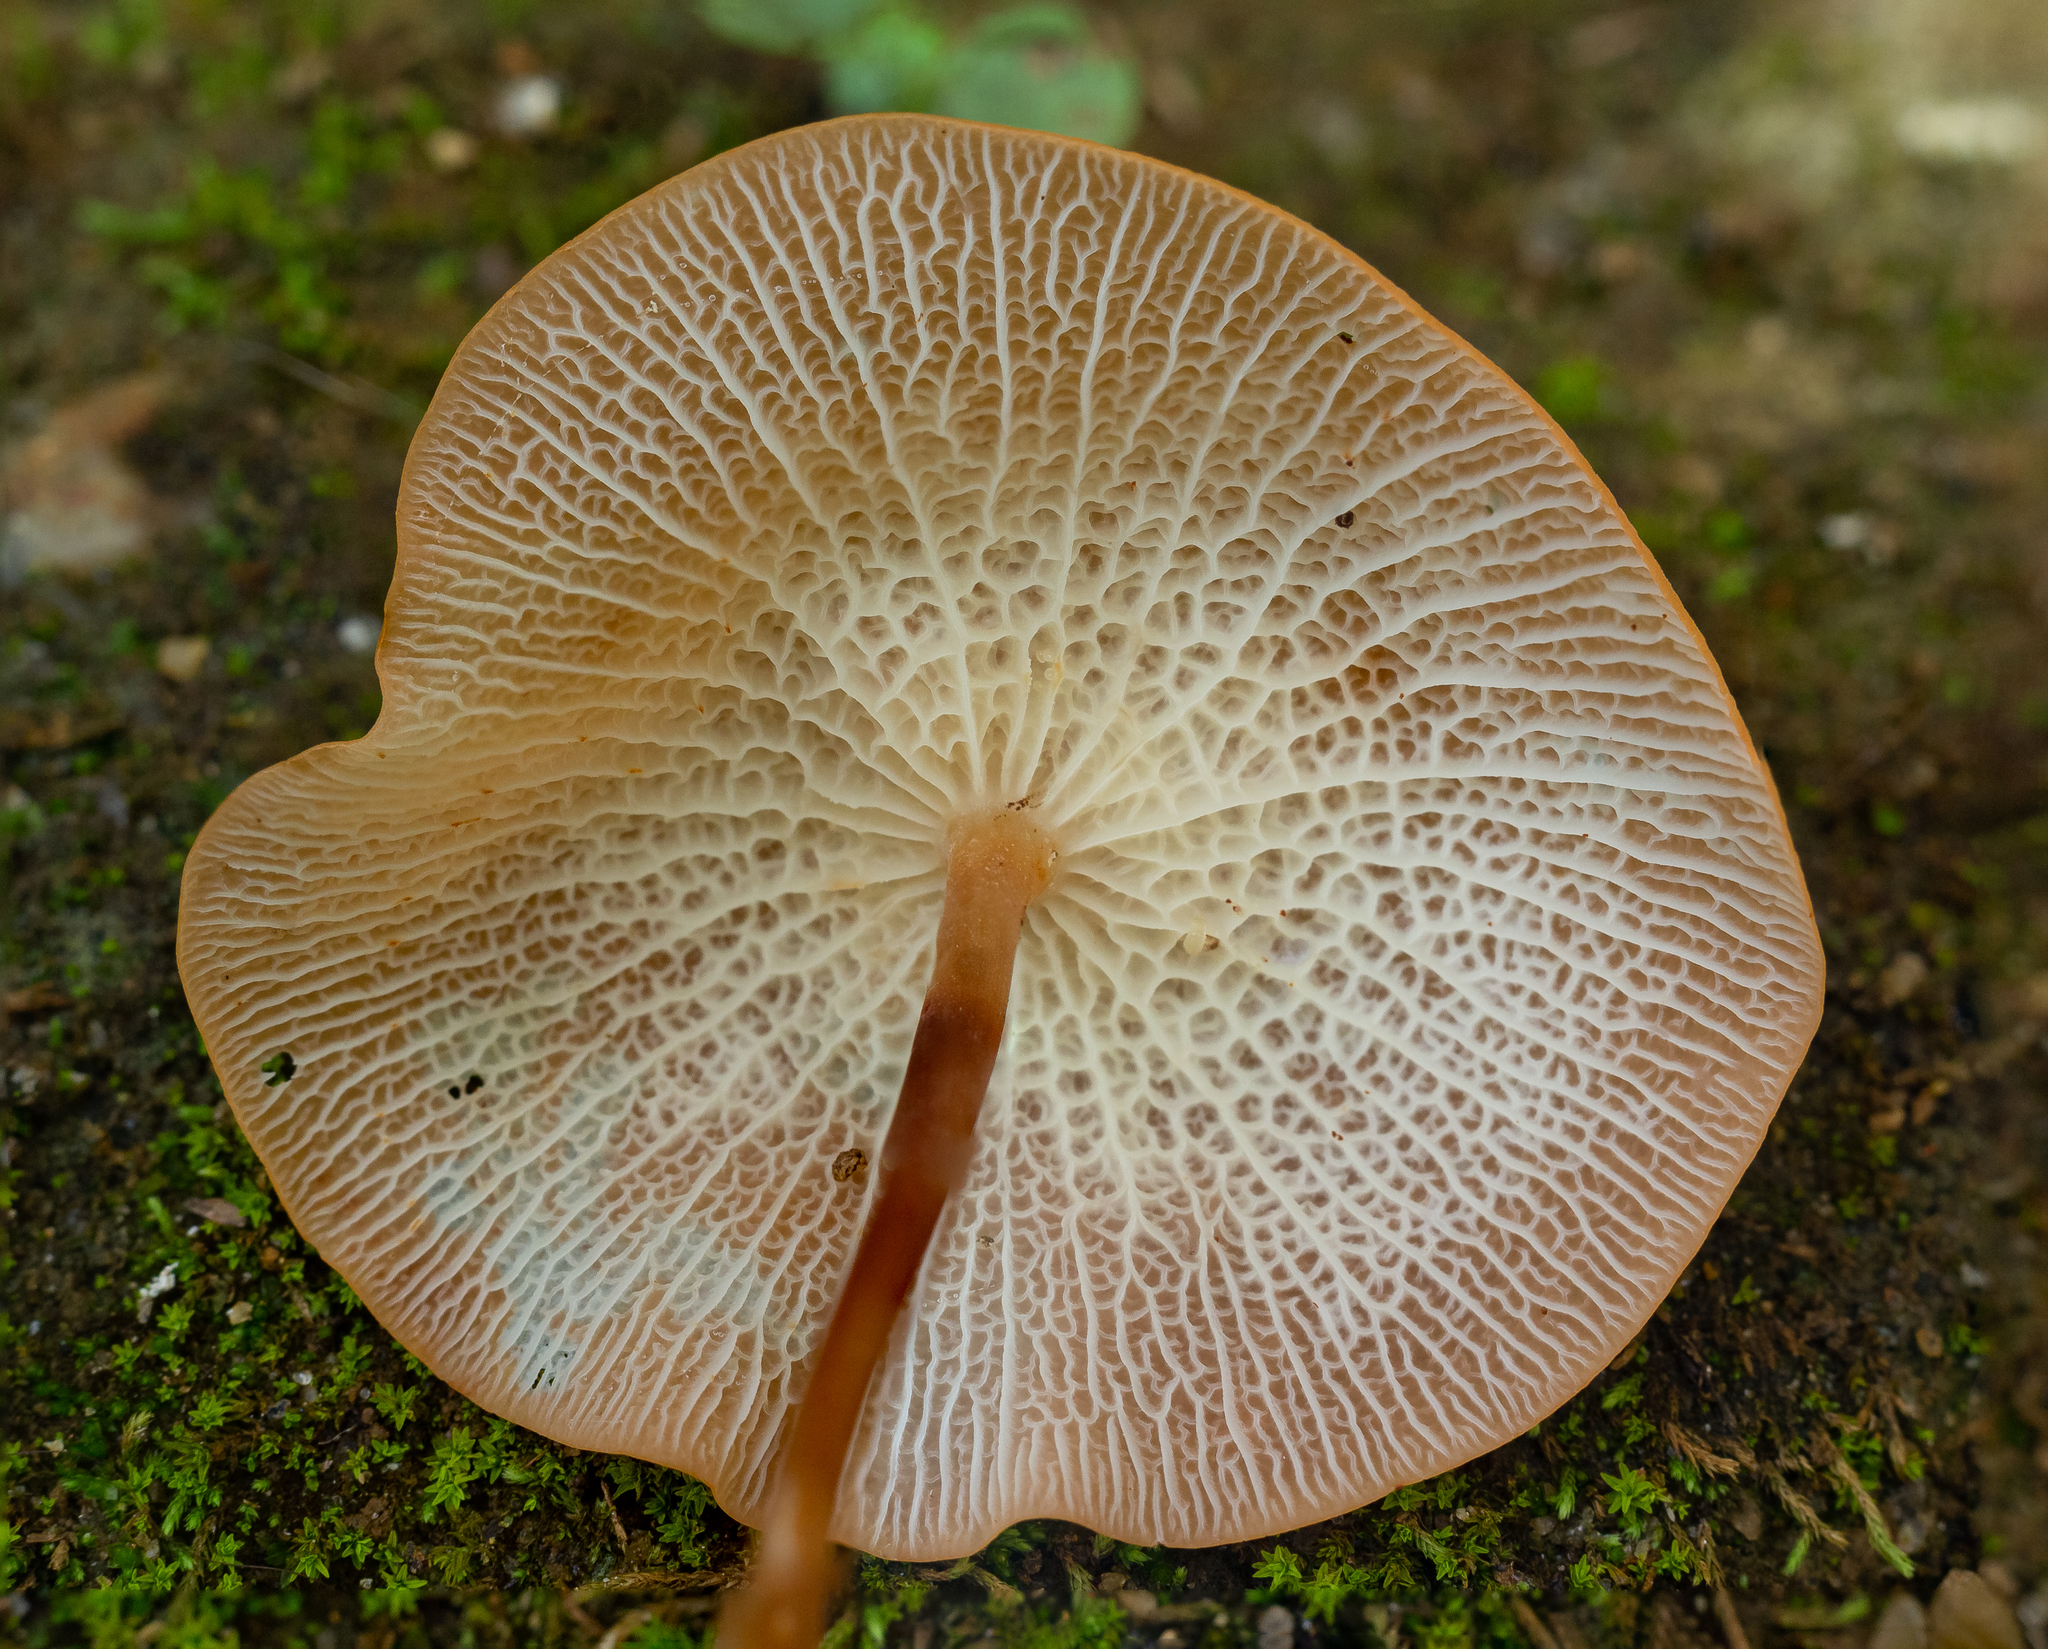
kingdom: Fungi
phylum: Basidiomycota
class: Agaricomycetes
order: Agaricales
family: Marasmiaceae
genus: Marasmius
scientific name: Marasmius cladophyllus
